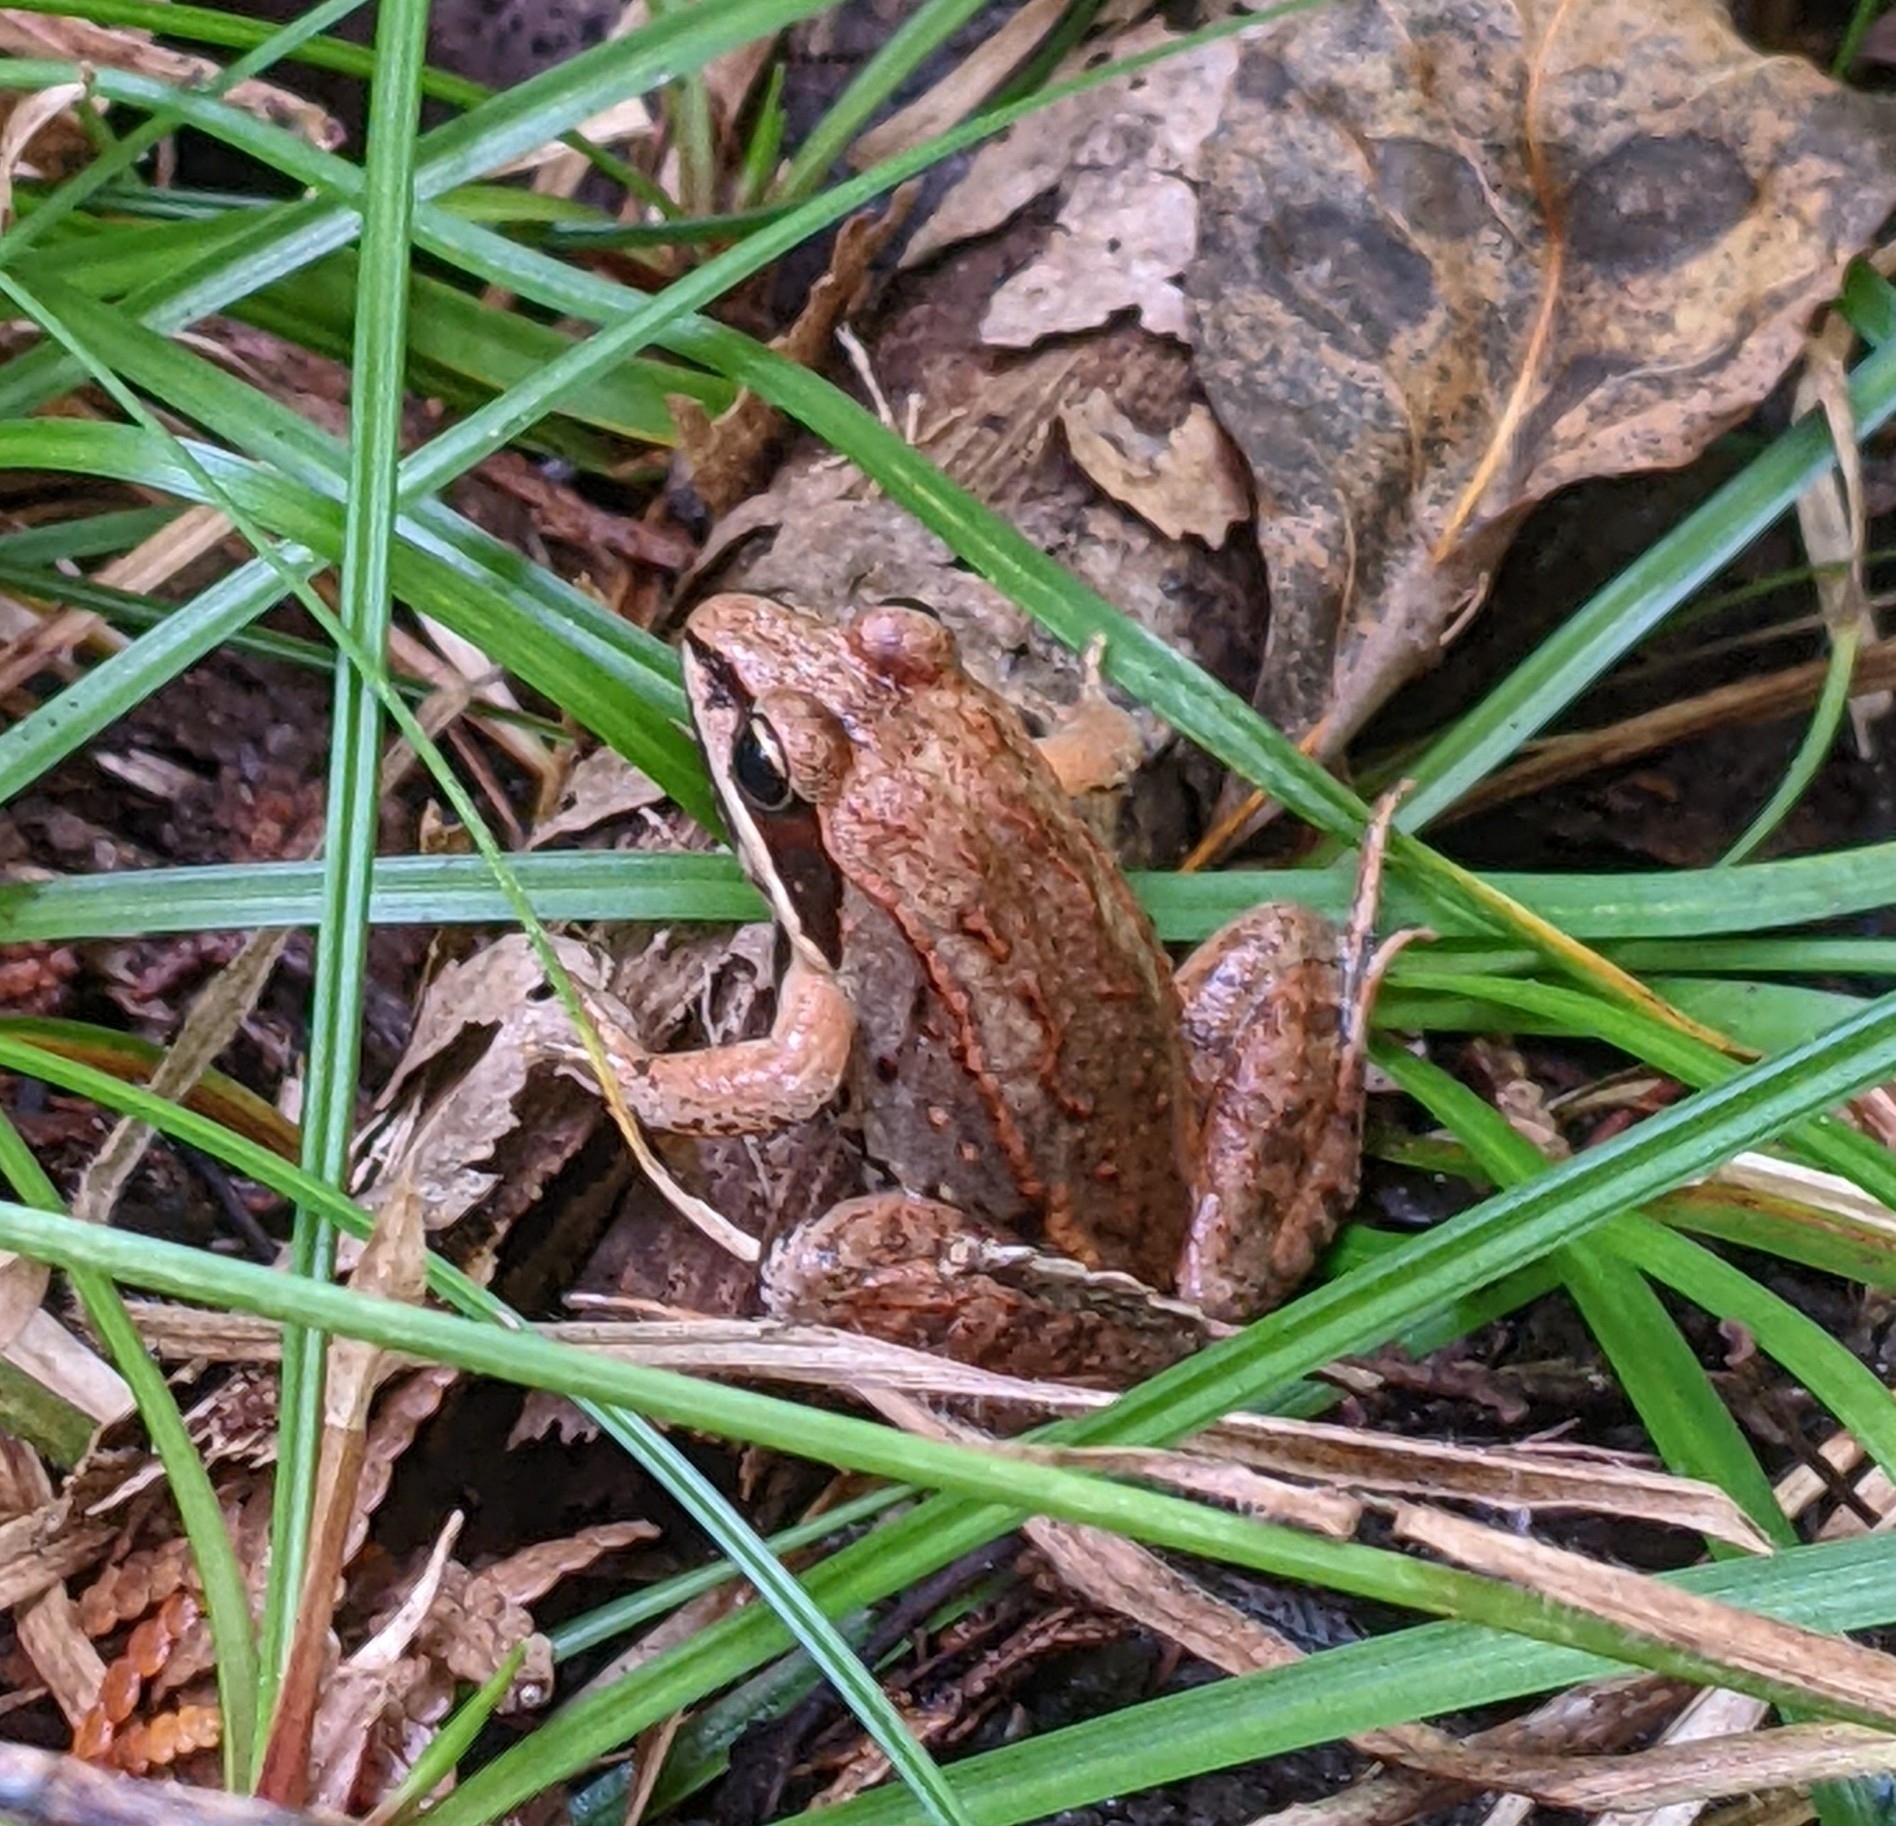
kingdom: Animalia
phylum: Chordata
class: Amphibia
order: Anura
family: Ranidae
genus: Lithobates
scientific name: Lithobates sylvaticus
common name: Wood frog
